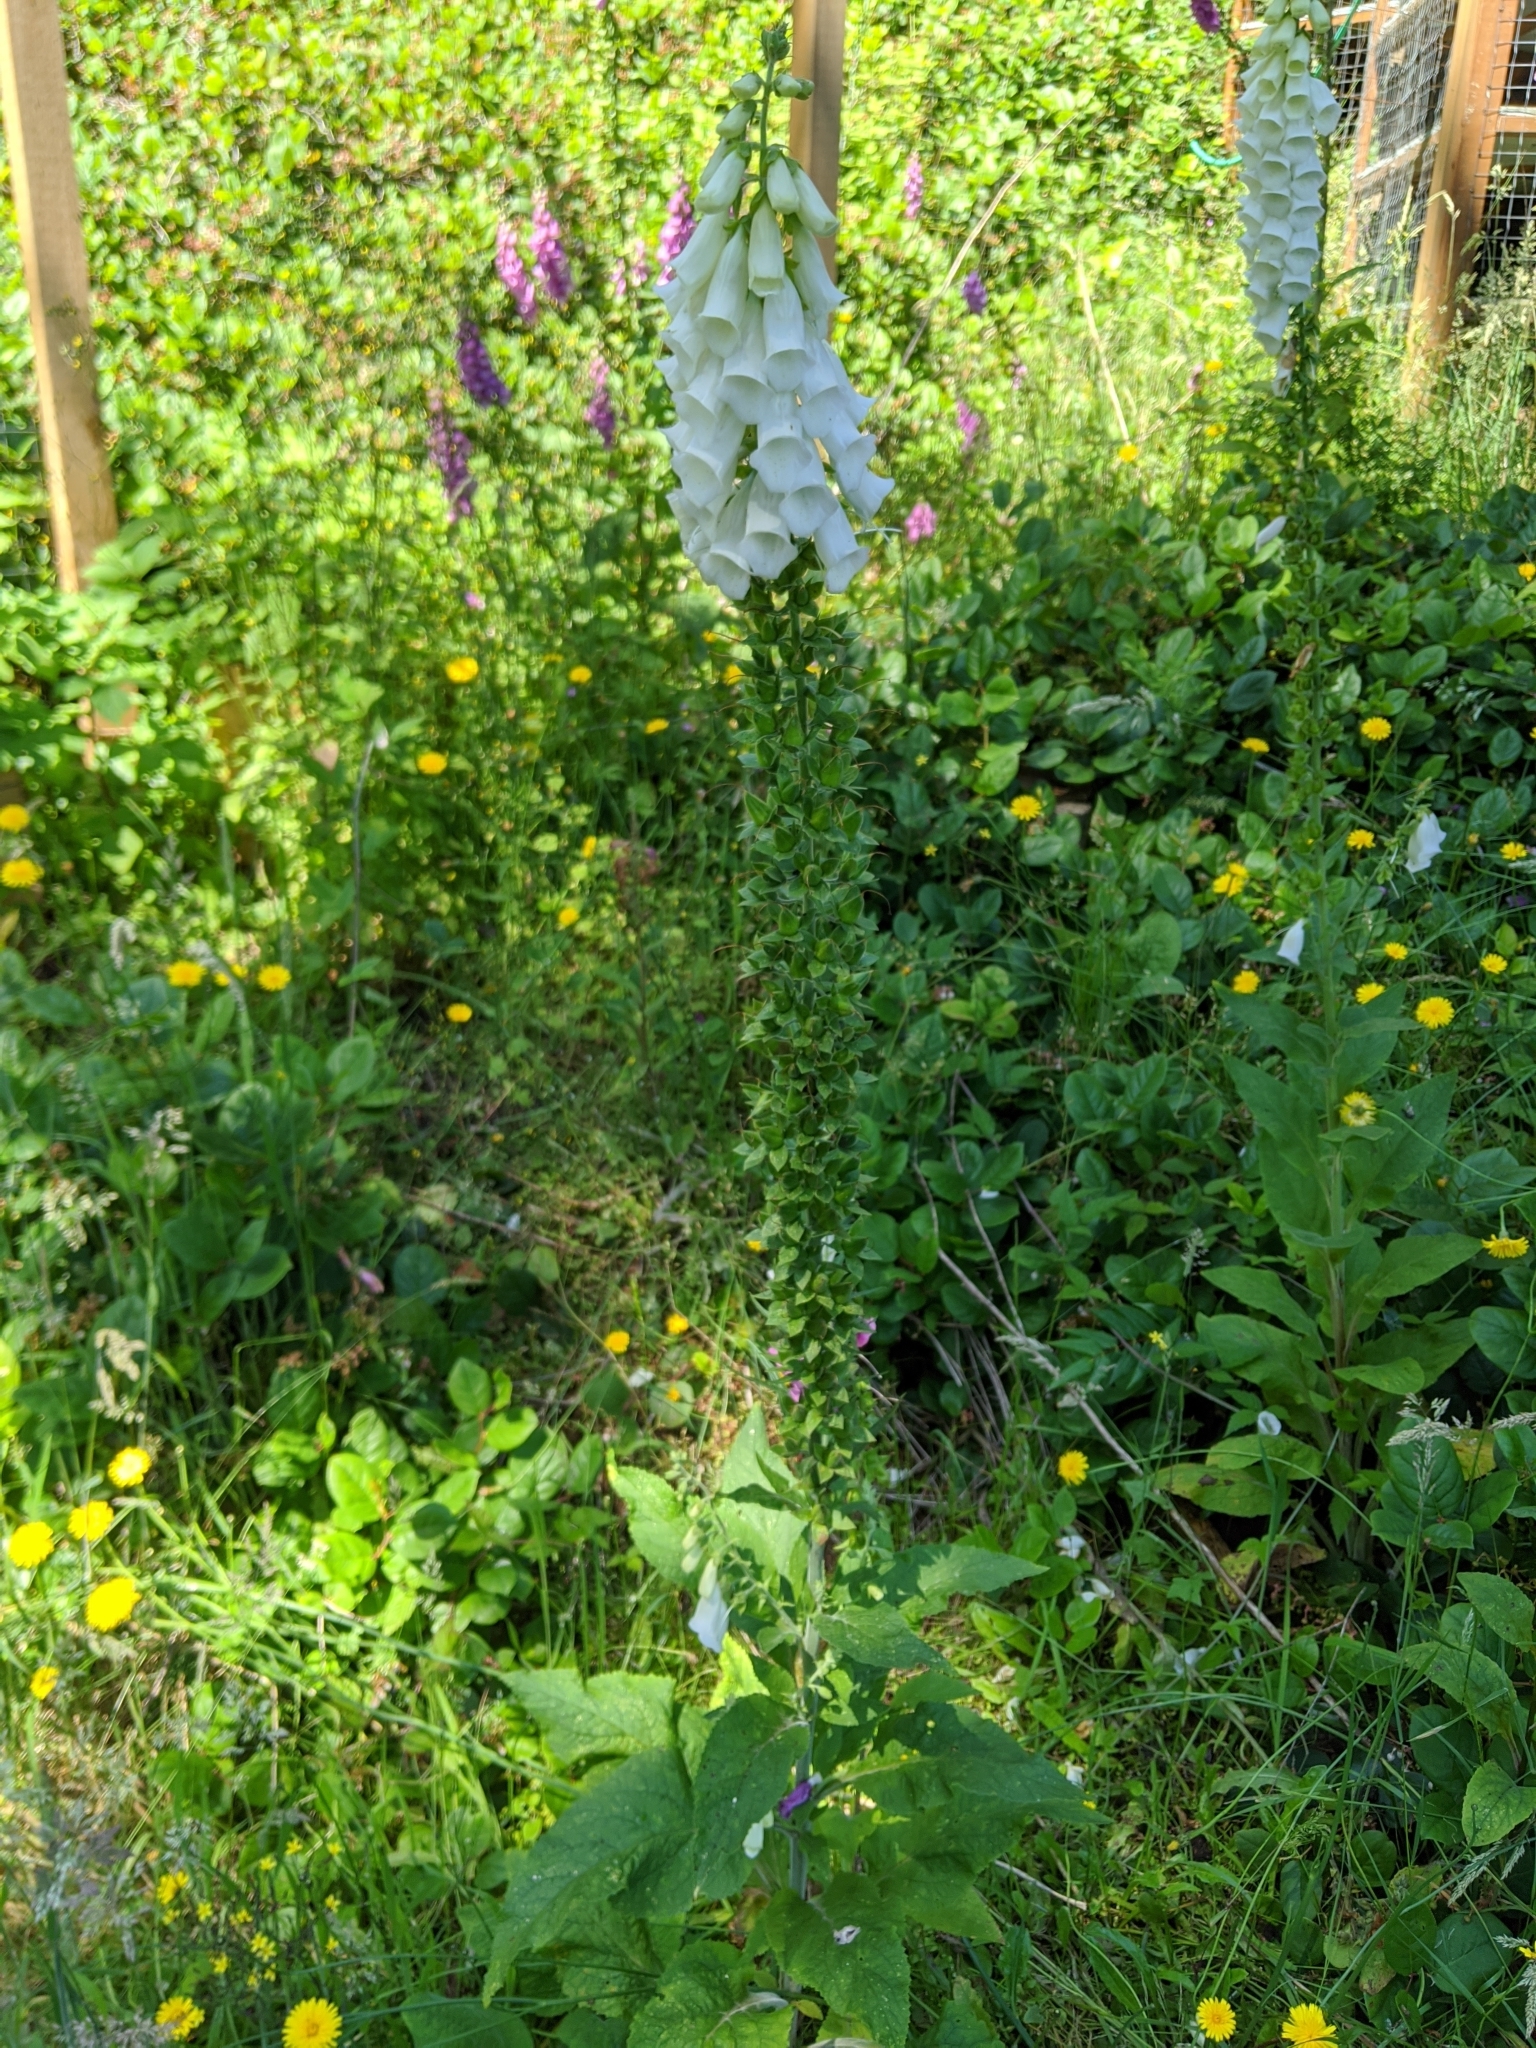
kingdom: Plantae
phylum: Tracheophyta
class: Magnoliopsida
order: Lamiales
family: Plantaginaceae
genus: Digitalis
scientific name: Digitalis purpurea
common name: Foxglove
